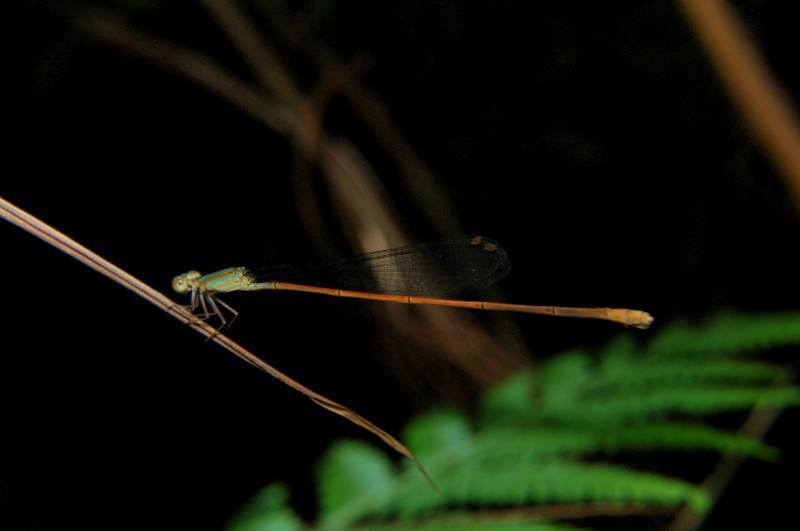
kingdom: Animalia
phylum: Arthropoda
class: Insecta
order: Odonata
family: Coenagrionidae
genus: Aciagrion
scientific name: Aciagrion pallidum
